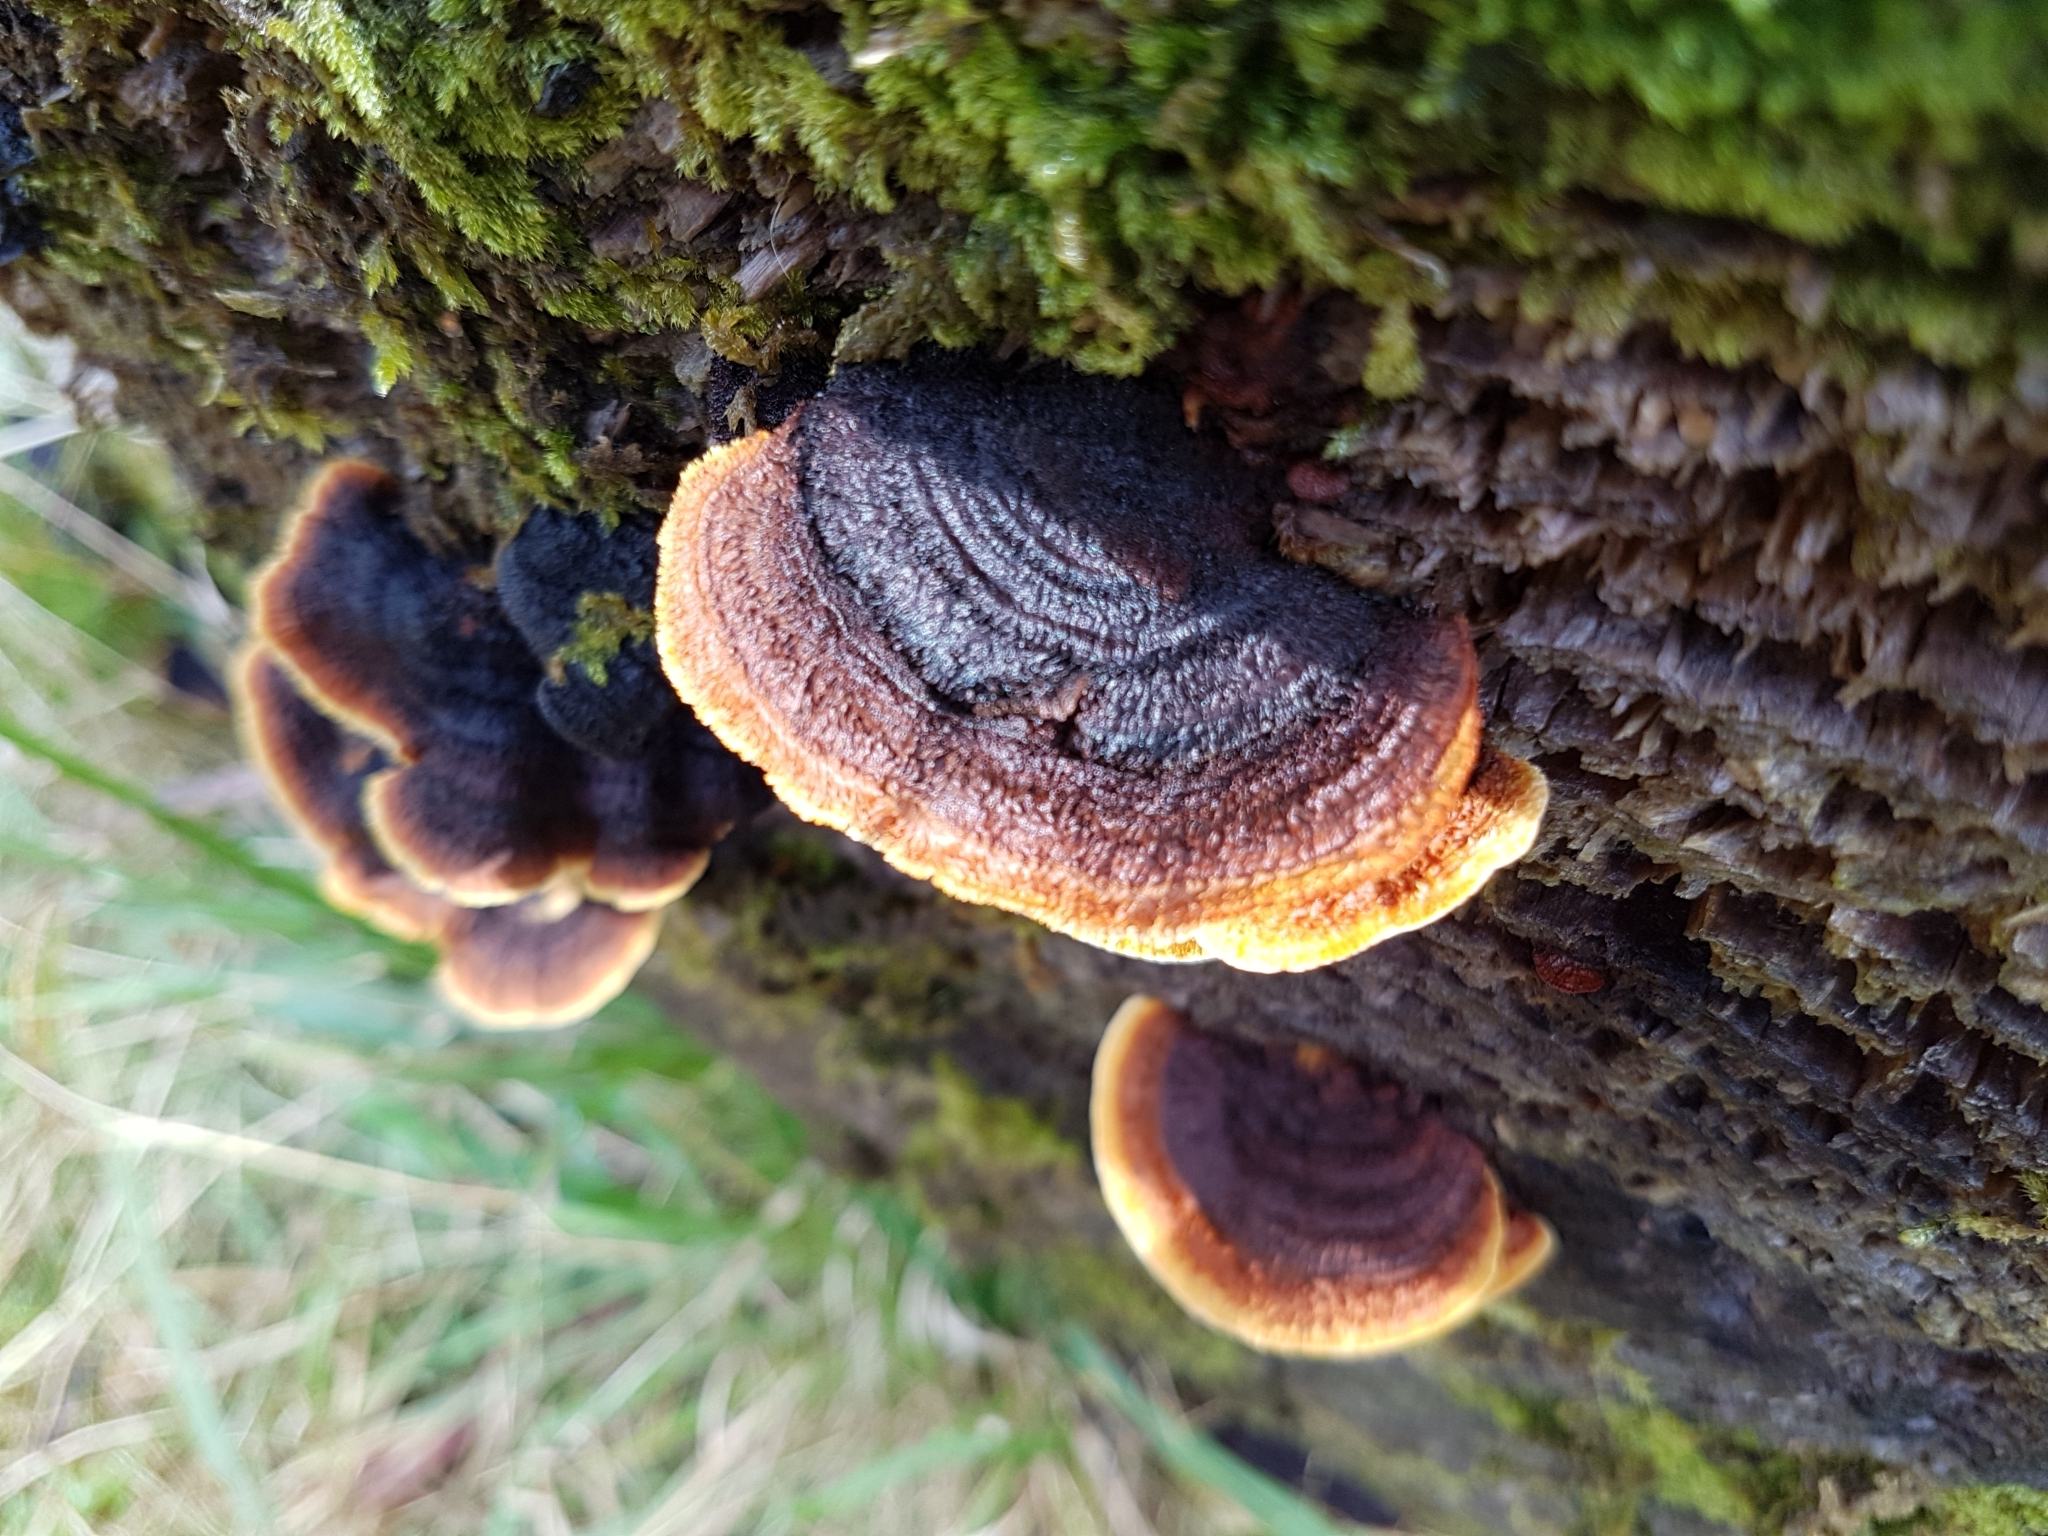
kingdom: Fungi
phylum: Basidiomycota
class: Agaricomycetes
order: Gloeophyllales
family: Gloeophyllaceae
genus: Gloeophyllum
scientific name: Gloeophyllum sepiarium
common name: Conifer mazegill
